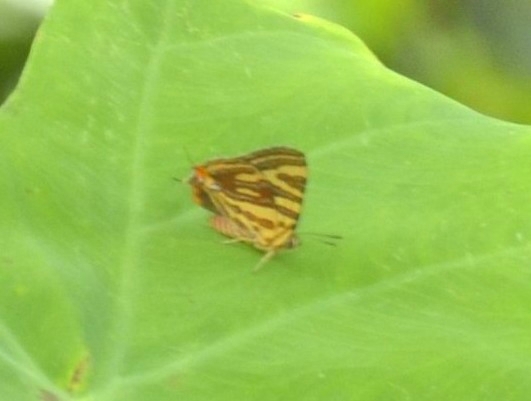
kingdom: Animalia
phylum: Arthropoda
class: Insecta
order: Lepidoptera
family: Lycaenidae
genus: Cigaritis
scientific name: Cigaritis lohita
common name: Long-banded silverline
